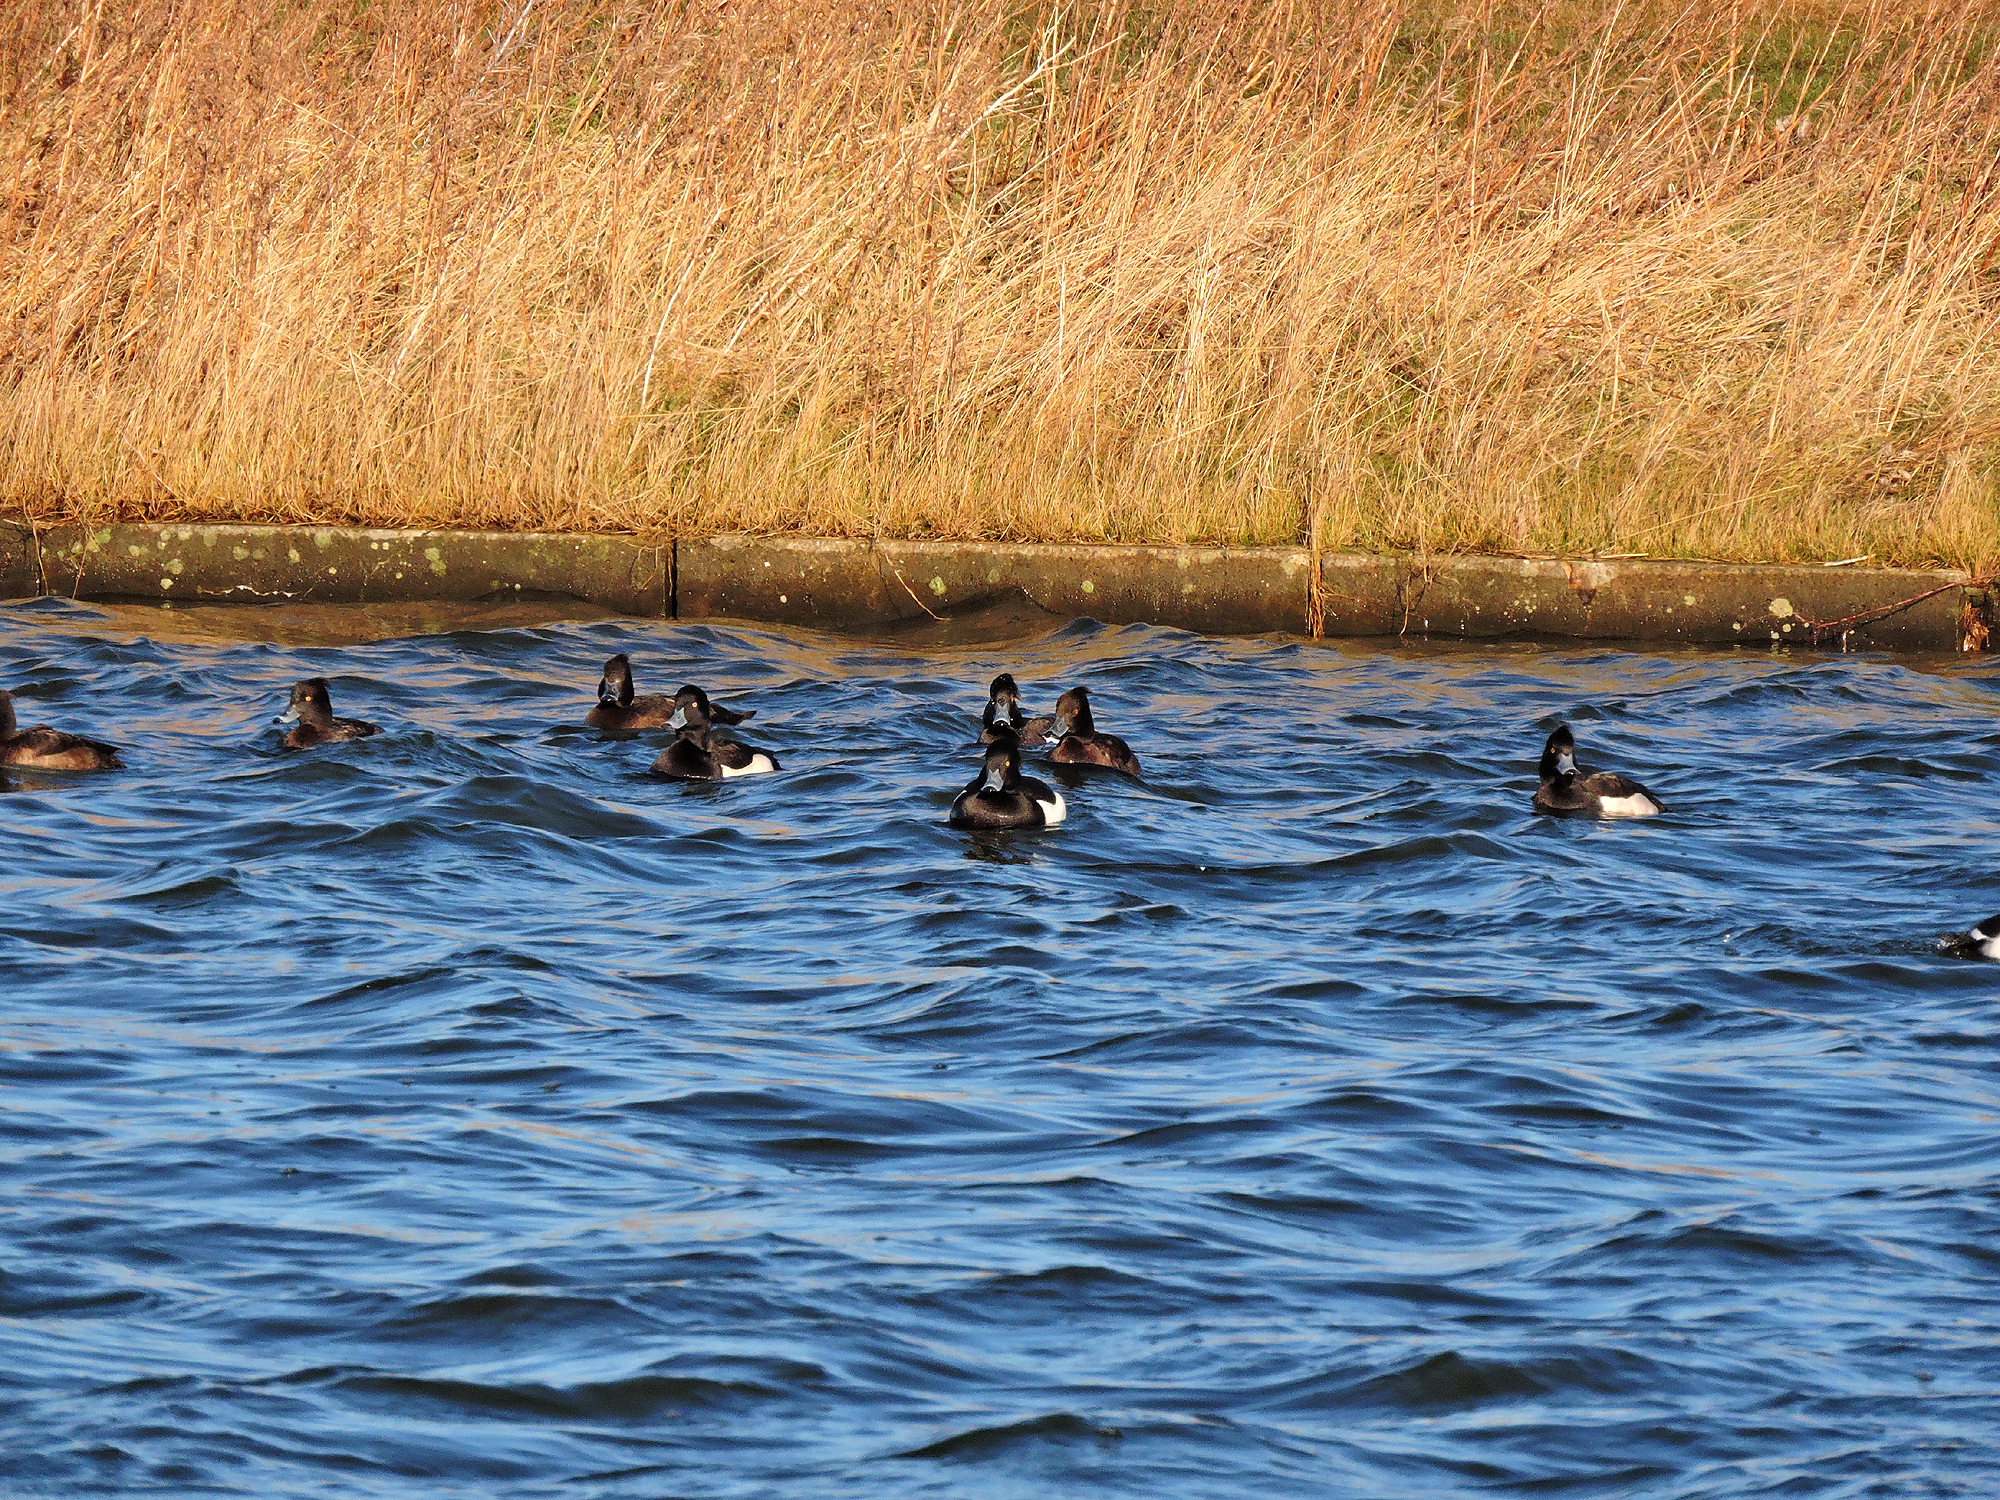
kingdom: Animalia
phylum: Chordata
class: Aves
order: Anseriformes
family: Anatidae
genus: Aythya
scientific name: Aythya fuligula
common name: Tufted duck
